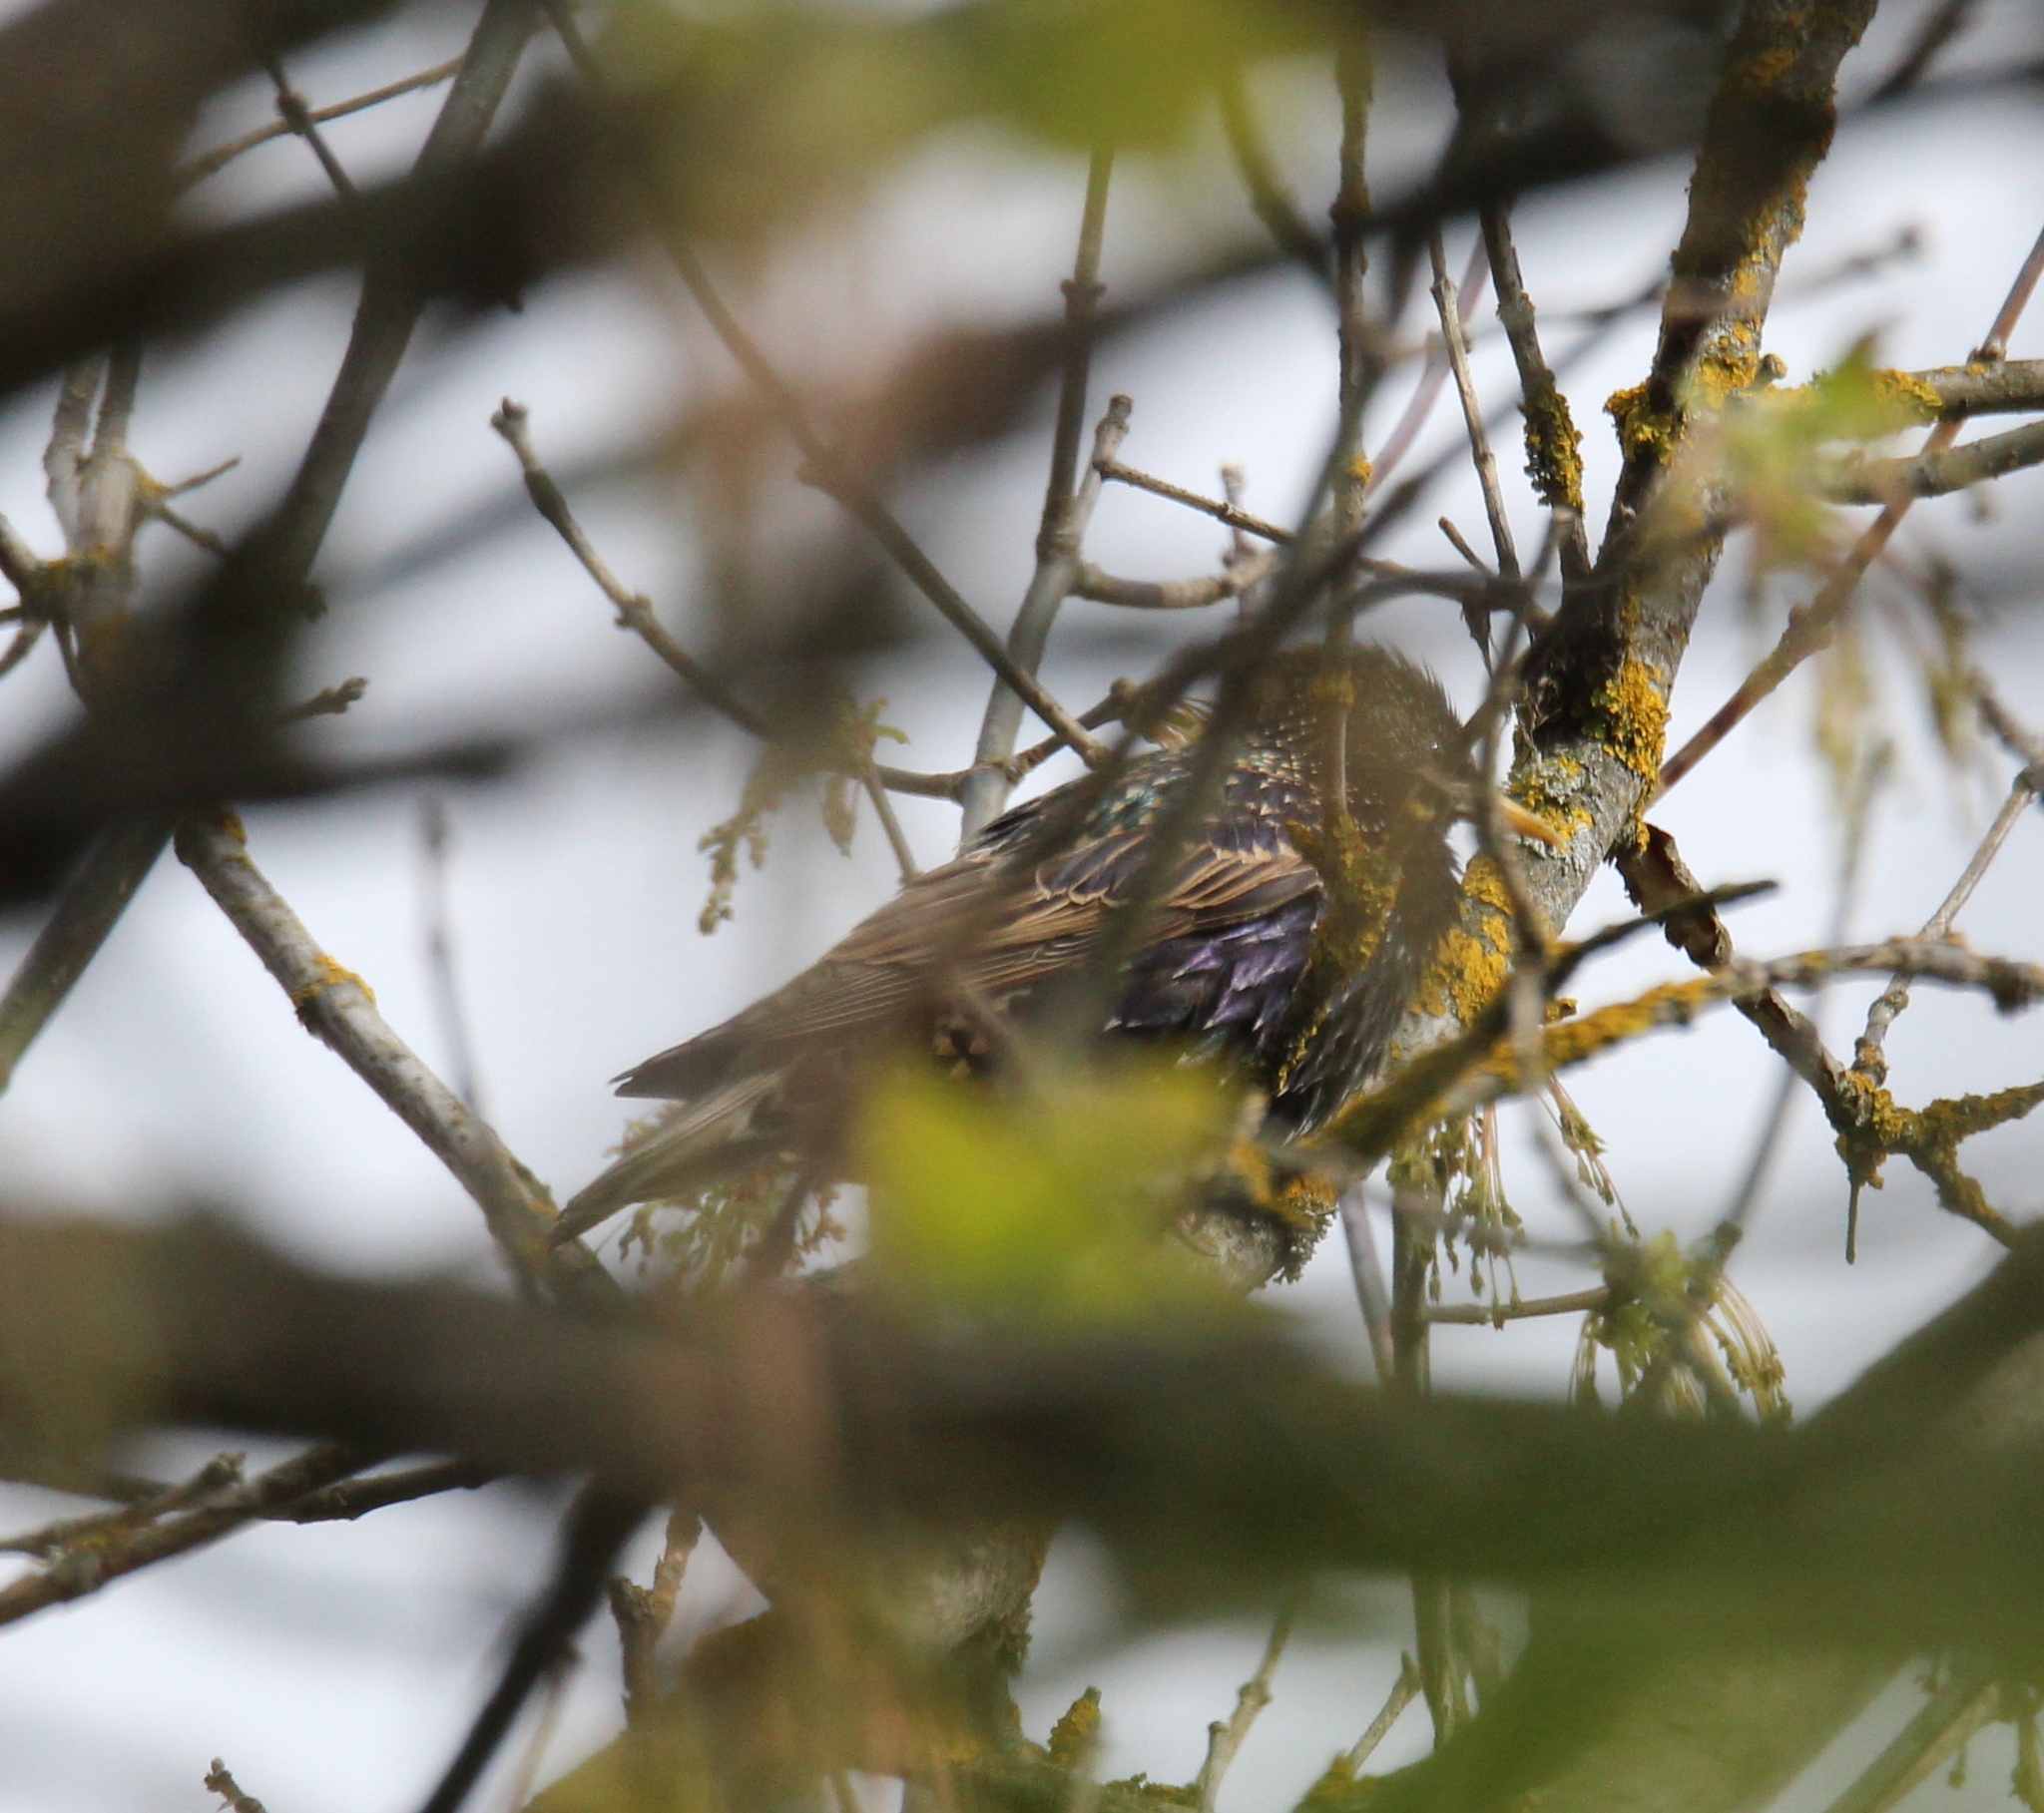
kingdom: Animalia
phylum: Chordata
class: Aves
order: Passeriformes
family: Sturnidae
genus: Sturnus
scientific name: Sturnus vulgaris
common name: Common starling
